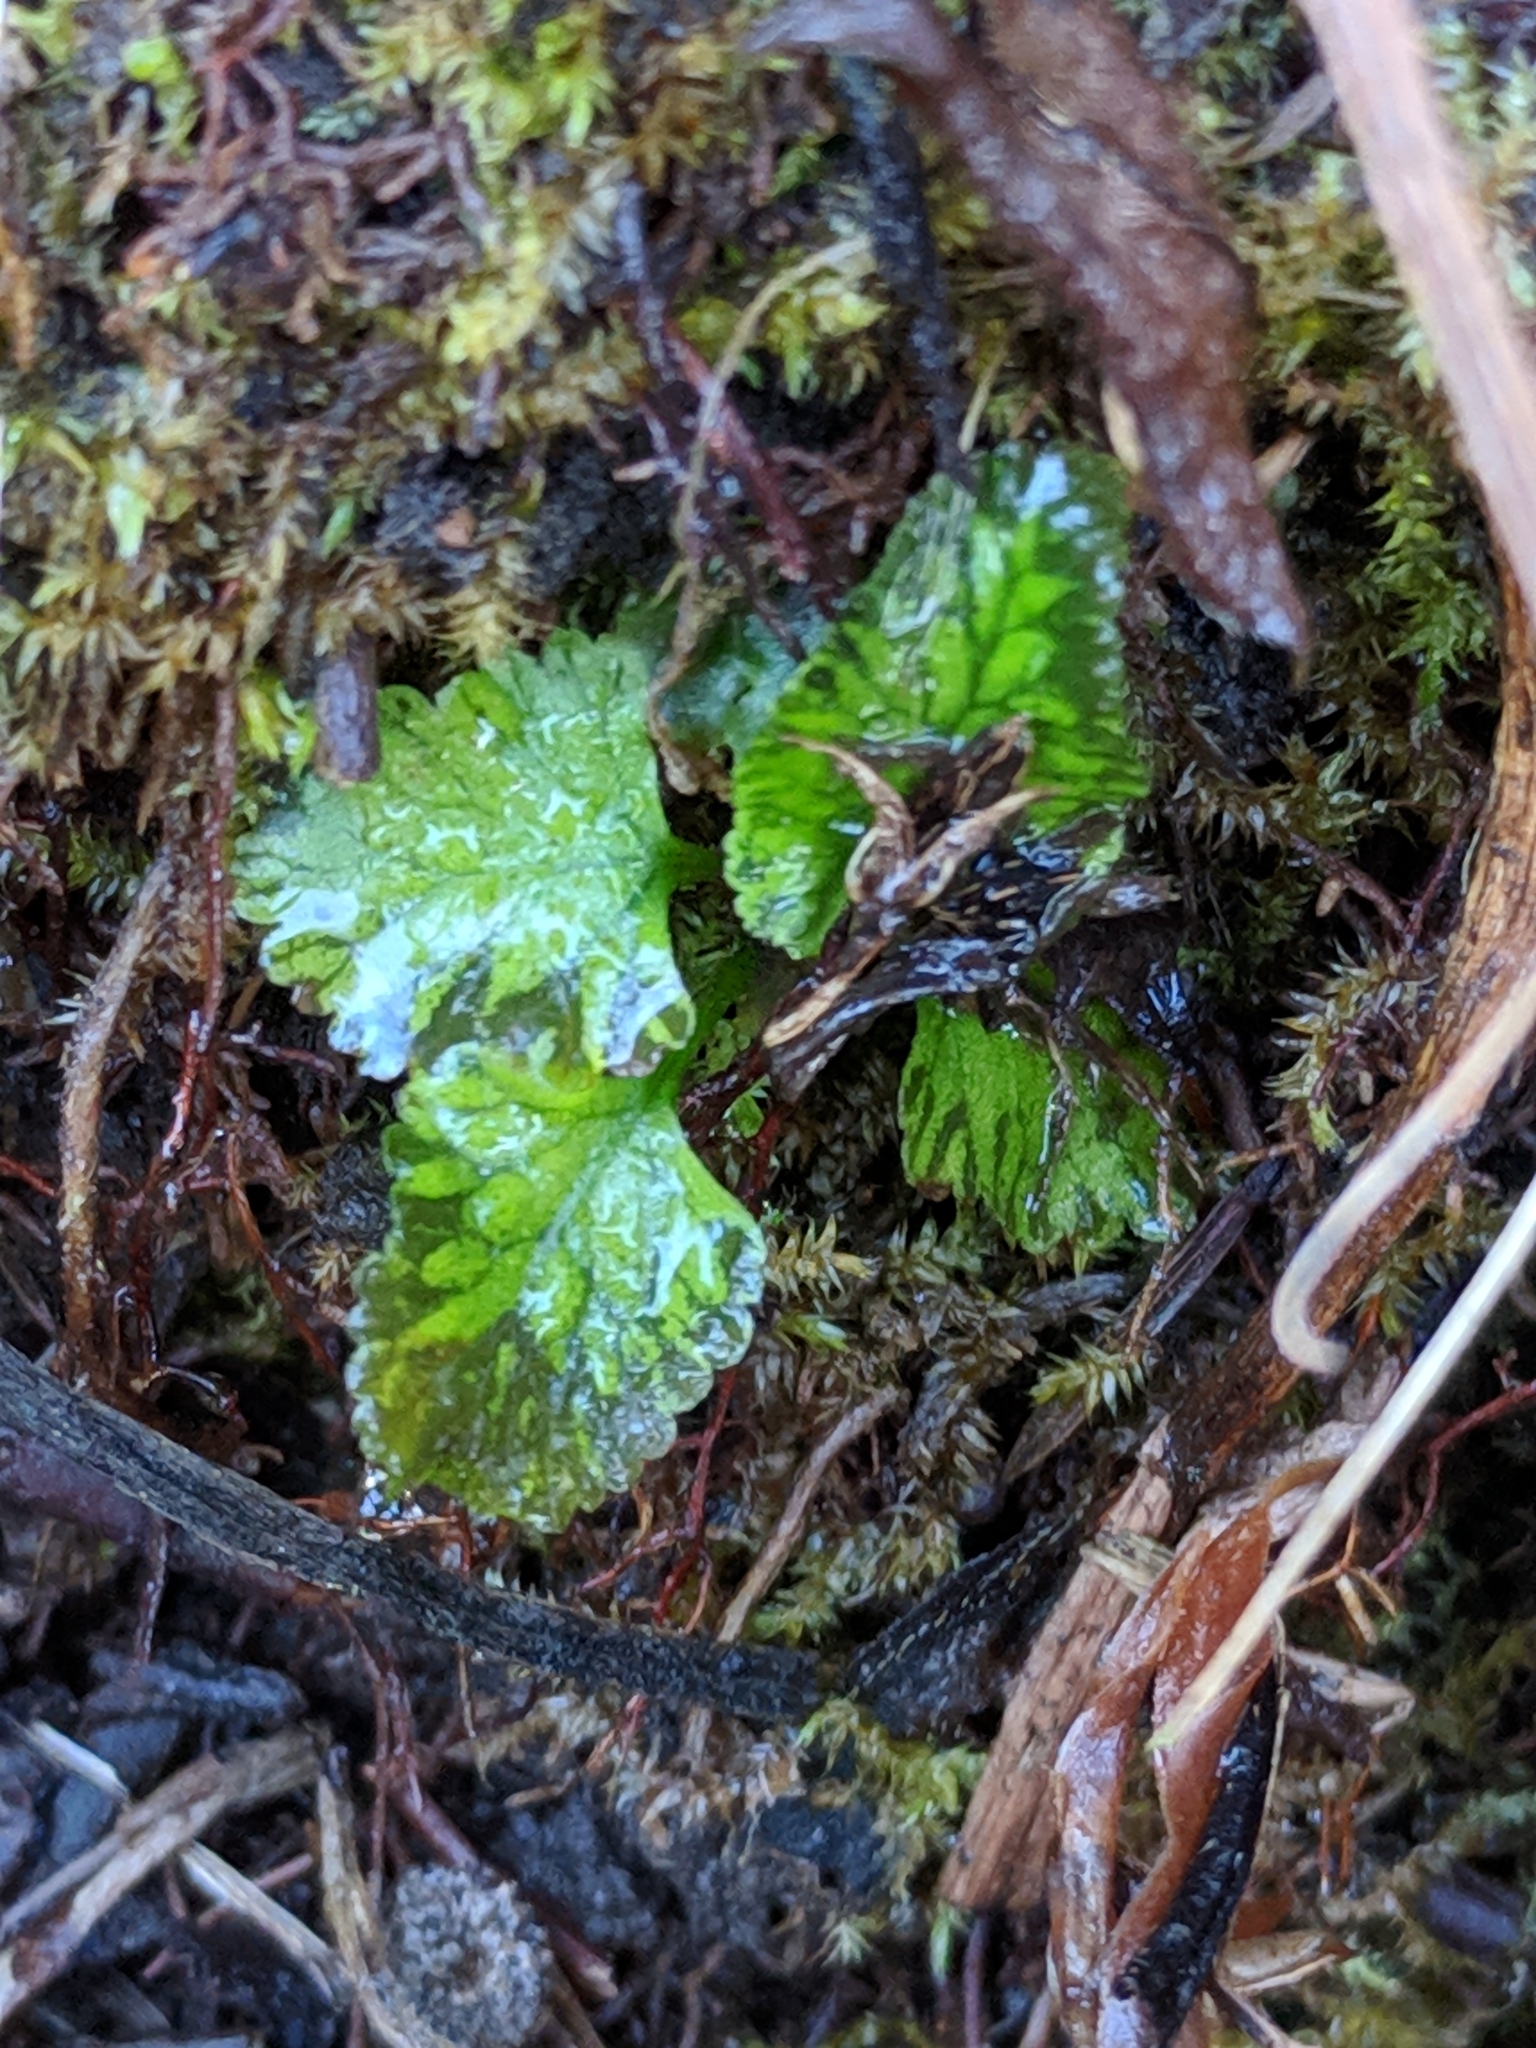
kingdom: Plantae
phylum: Tracheophyta
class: Polypodiopsida
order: Polypodiales
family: Blechnaceae
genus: Lorinseria
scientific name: Lorinseria areolata
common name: Dwarf chain fern
